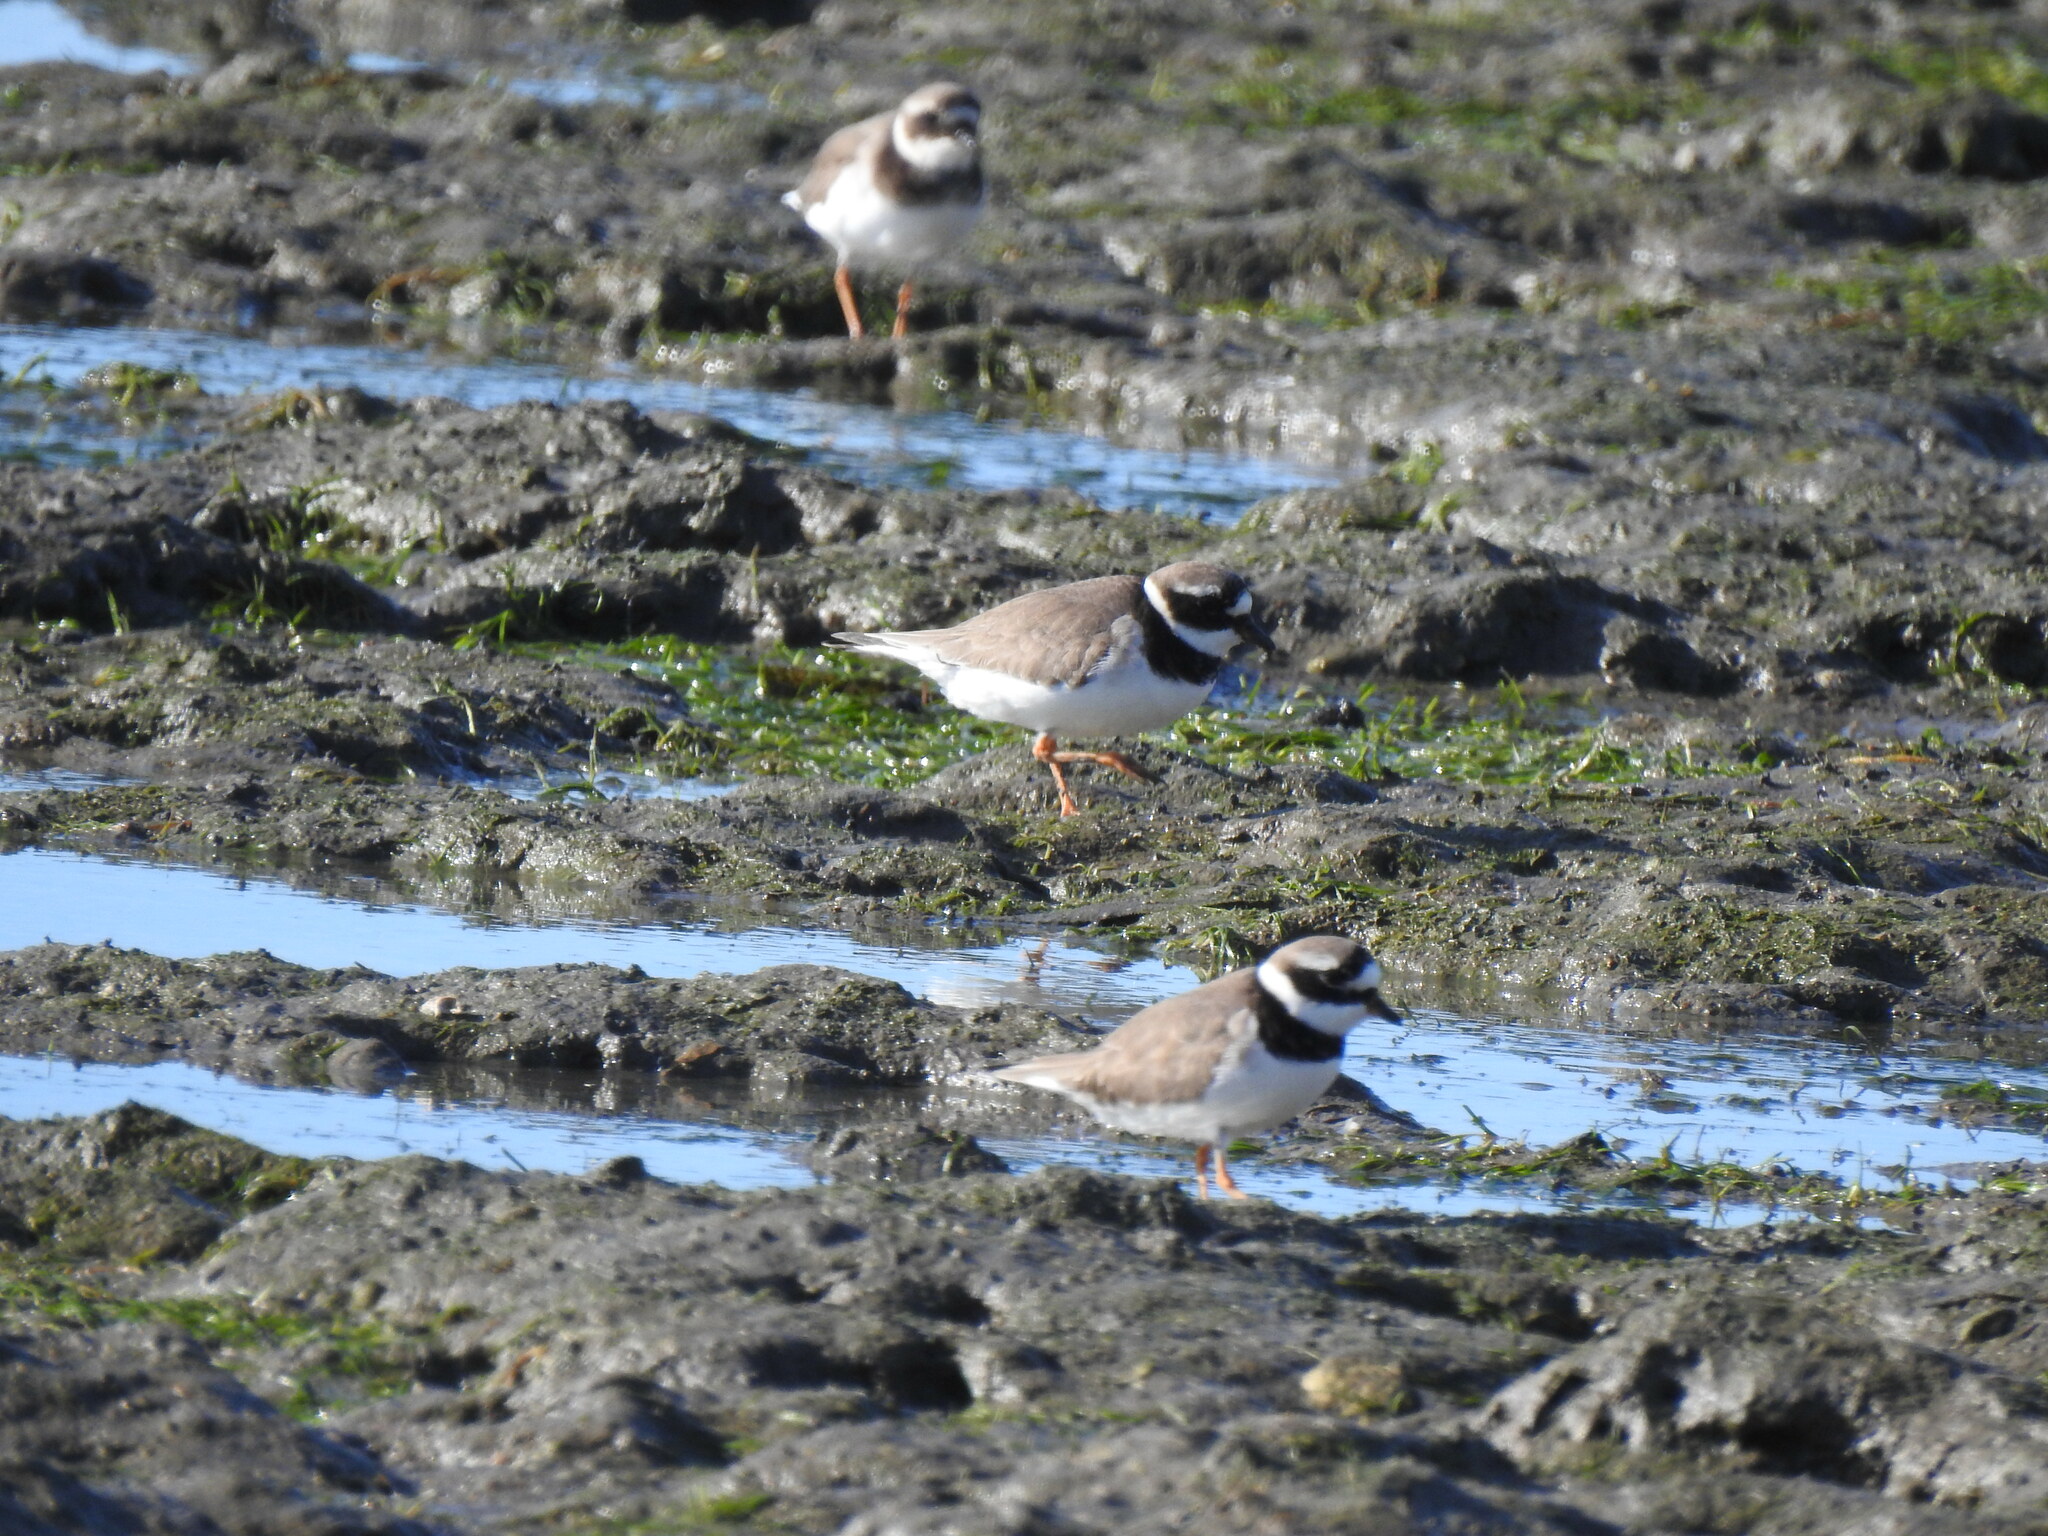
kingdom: Animalia
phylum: Chordata
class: Aves
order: Charadriiformes
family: Charadriidae
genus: Charadrius
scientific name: Charadrius hiaticula
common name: Common ringed plover
